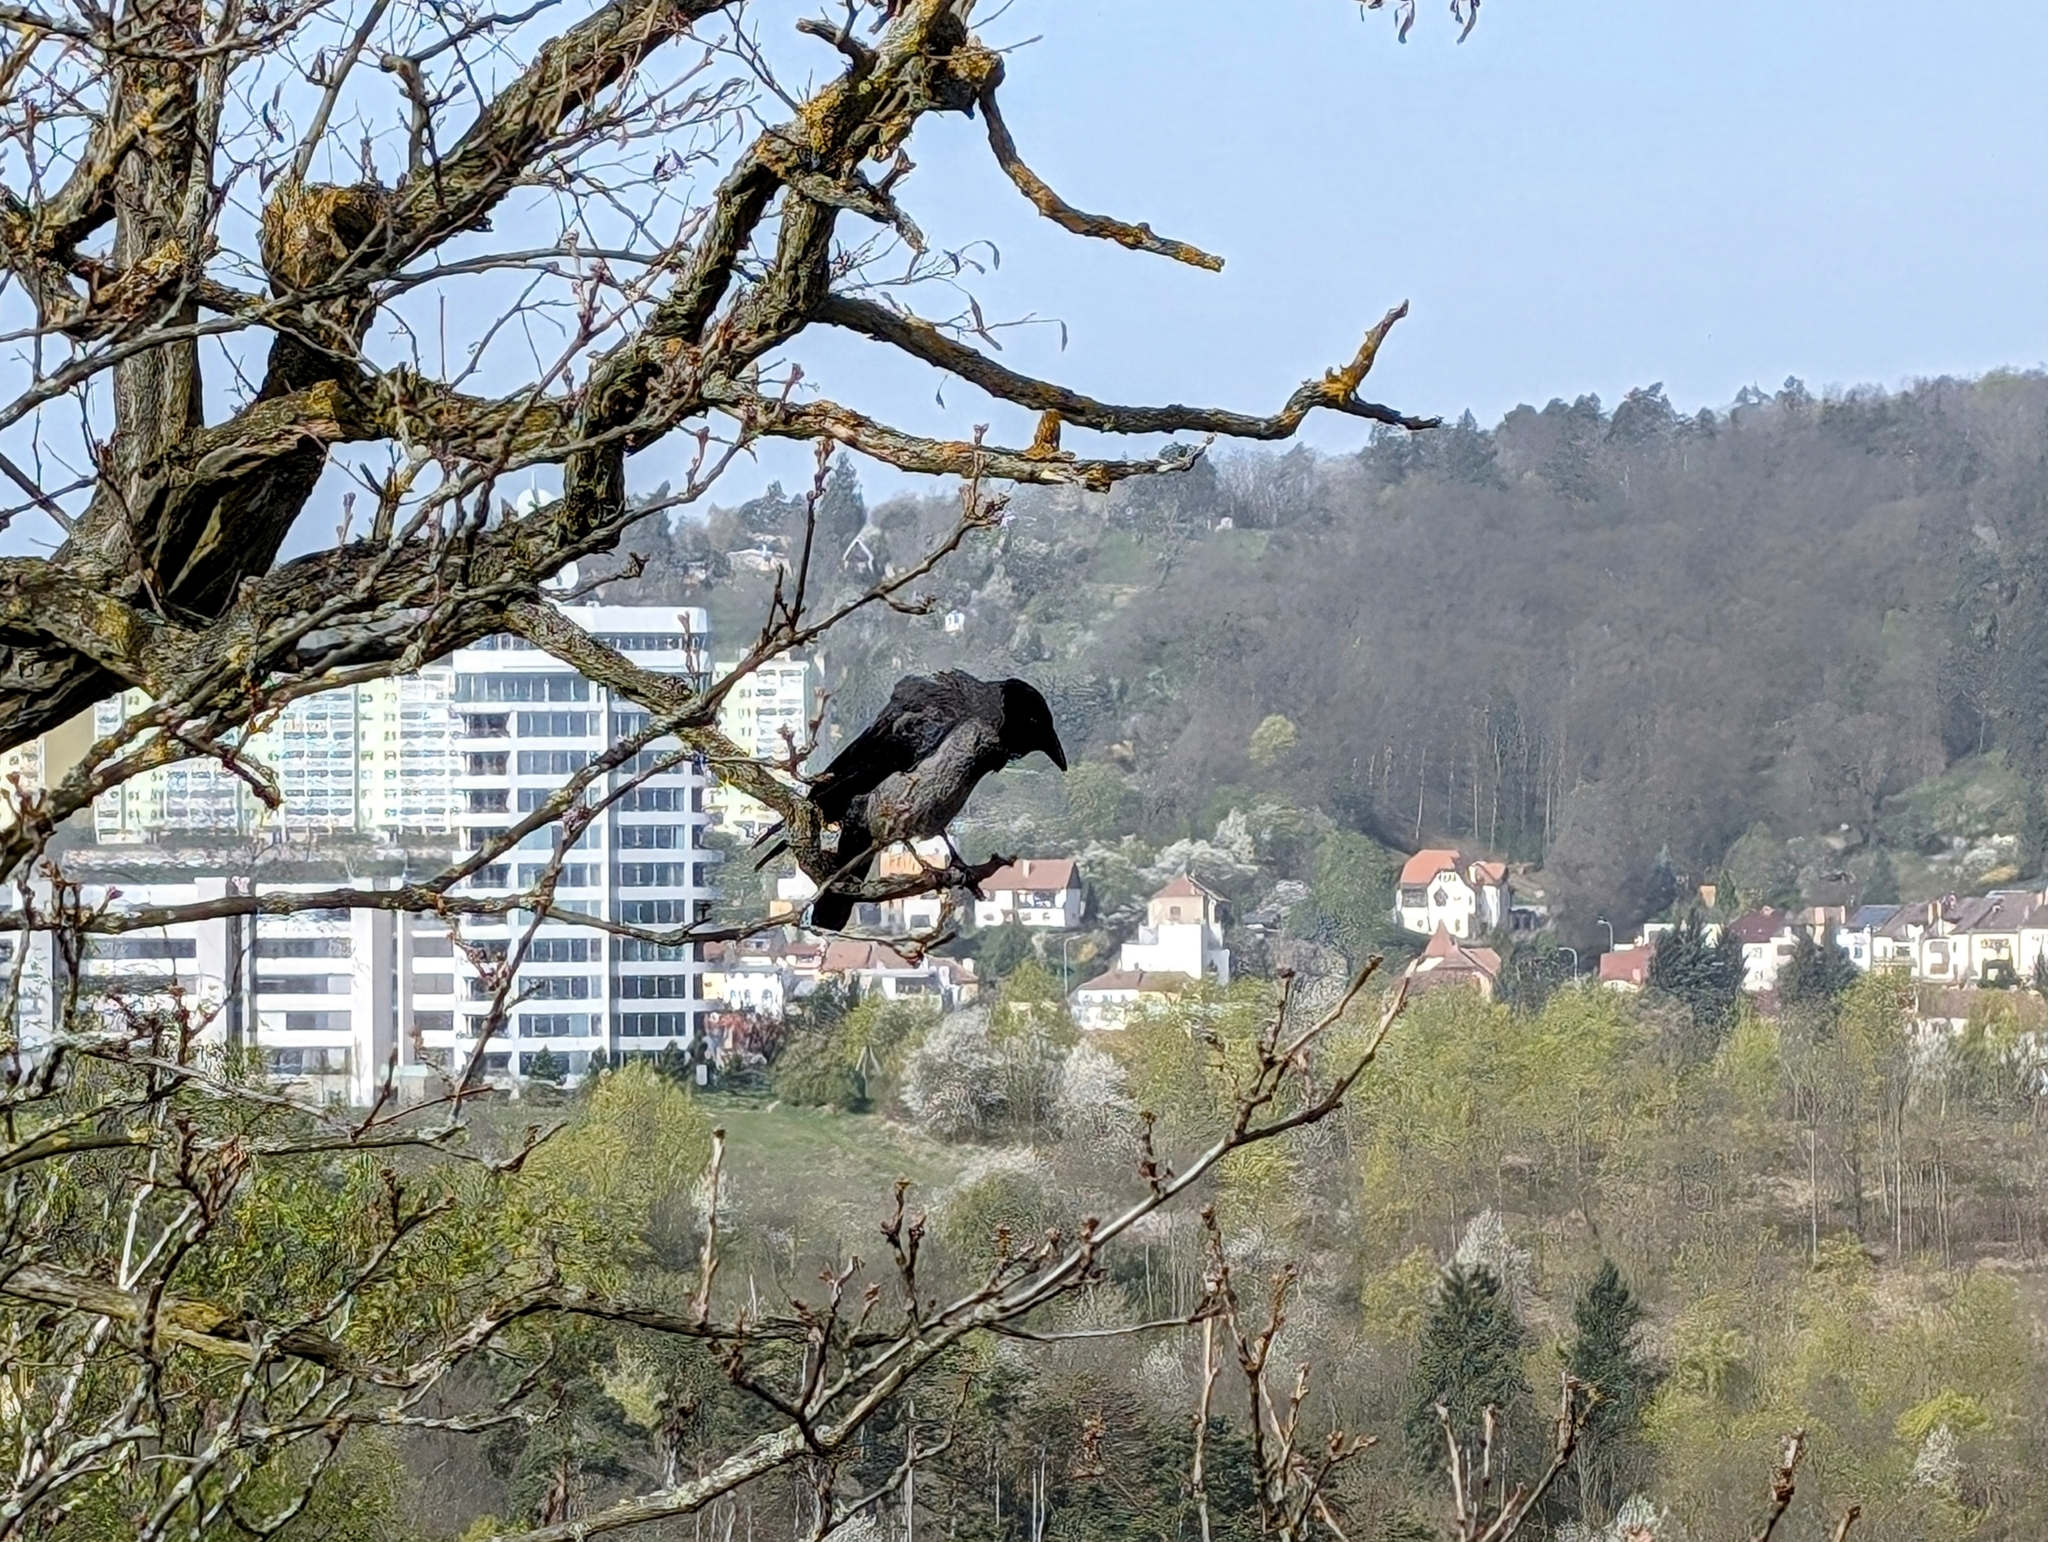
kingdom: Animalia
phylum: Chordata
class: Aves
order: Passeriformes
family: Corvidae
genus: Corvus
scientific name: Corvus cornix
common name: Hooded crow
